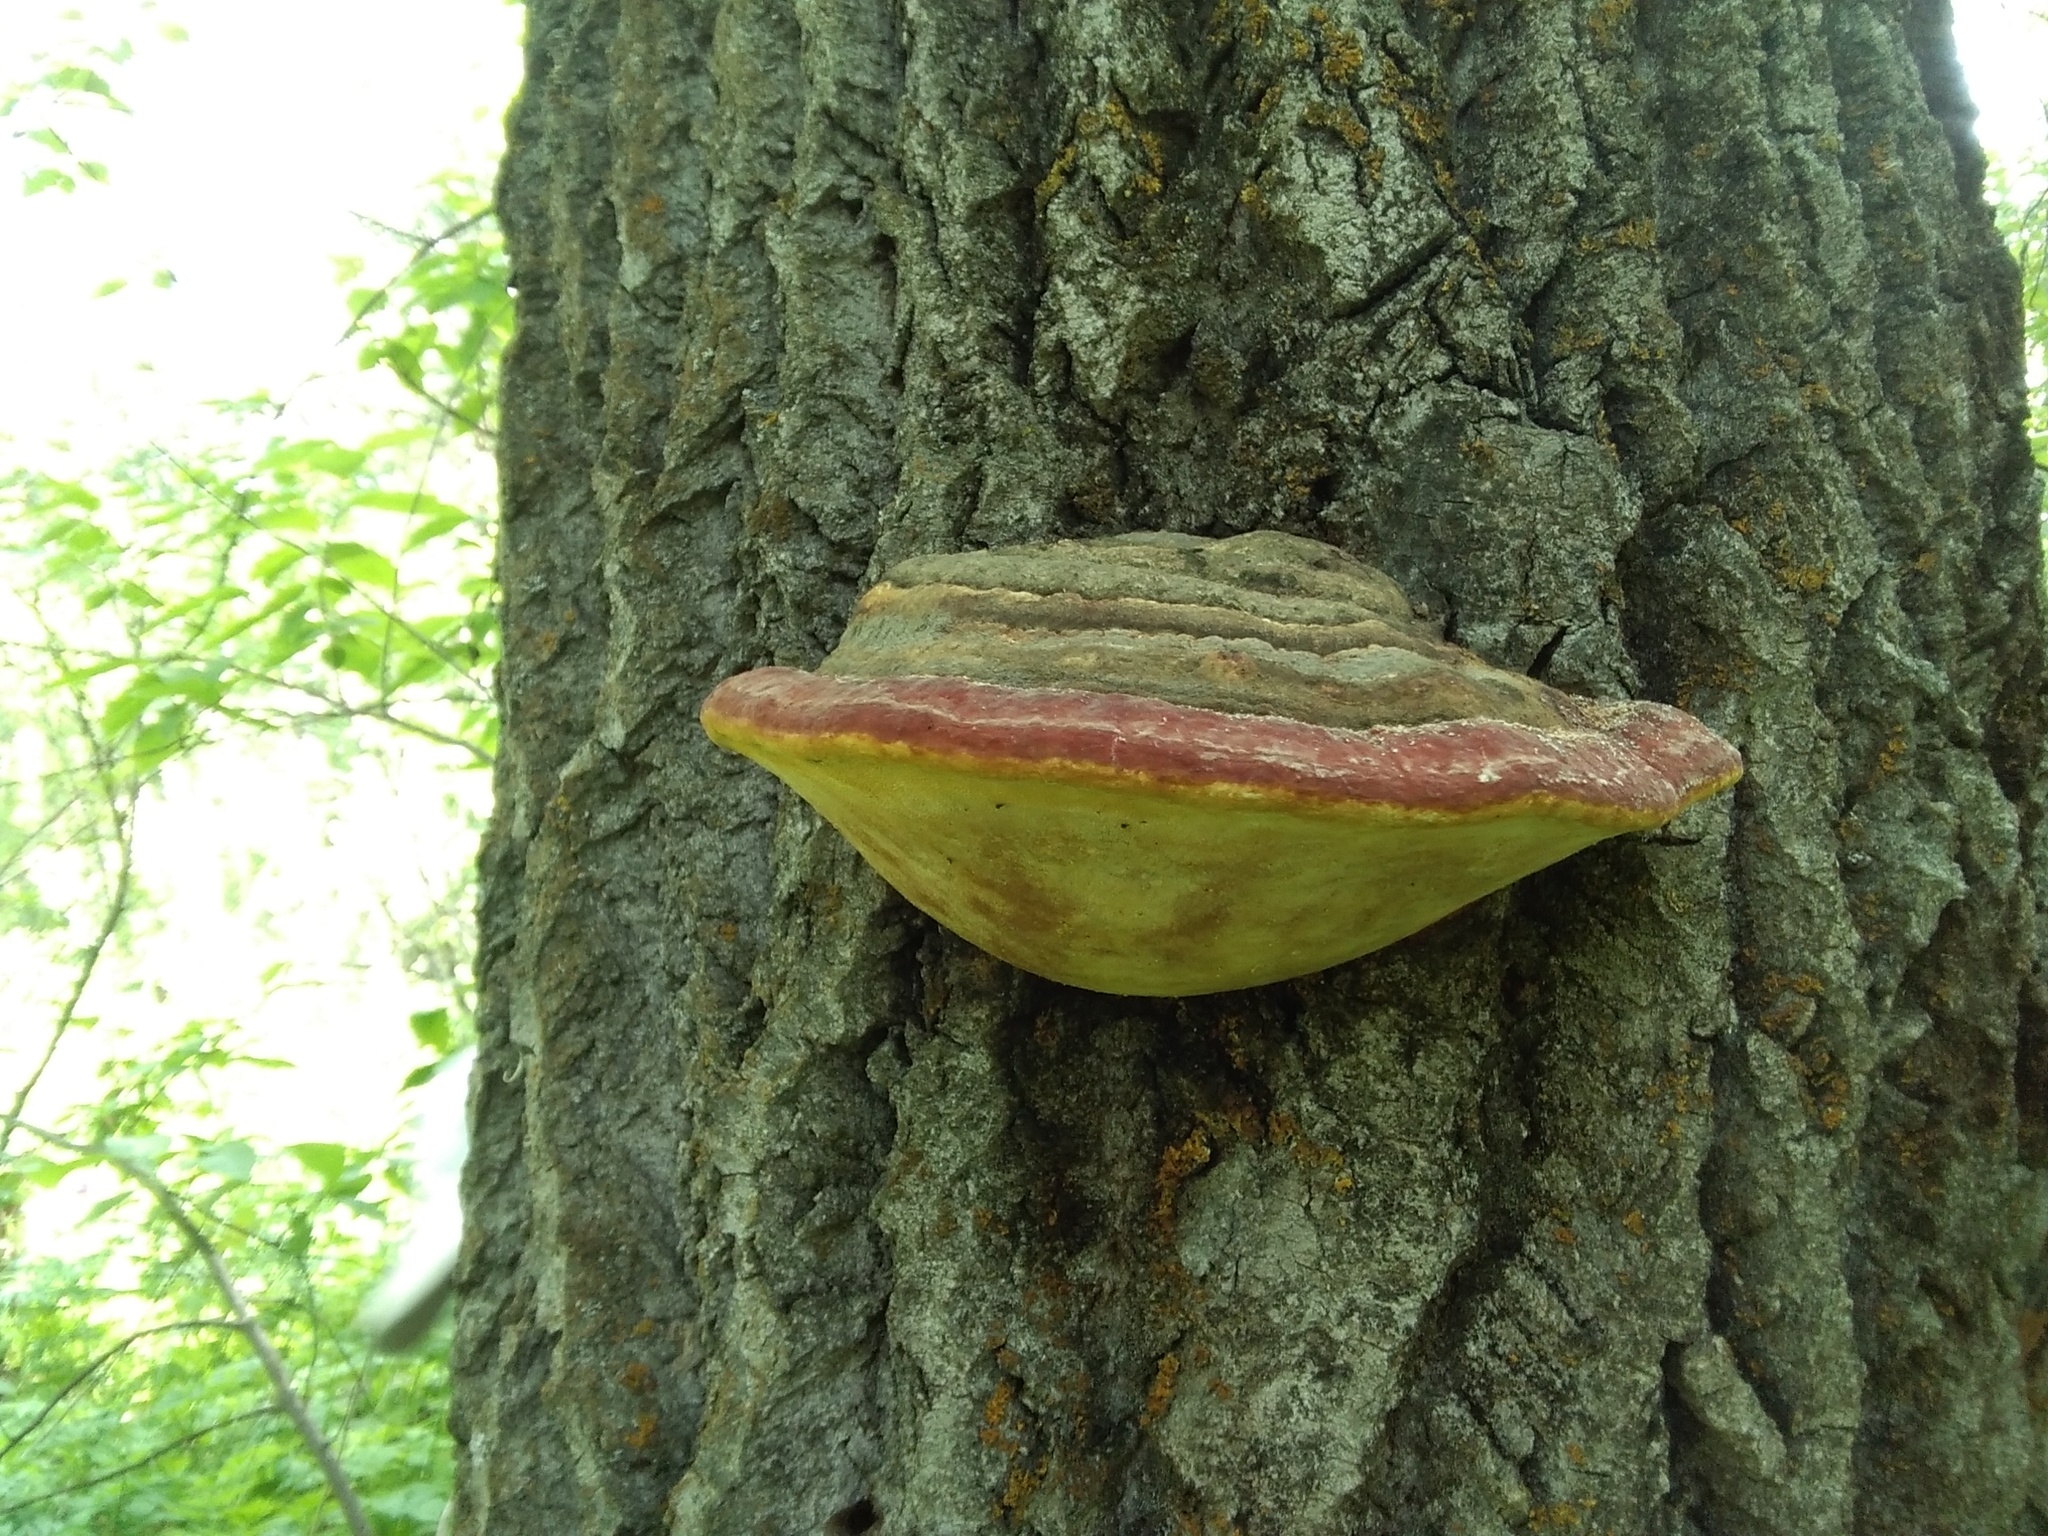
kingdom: Fungi
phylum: Basidiomycota
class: Agaricomycetes
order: Polyporales
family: Fomitopsidaceae
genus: Fomitopsis
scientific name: Fomitopsis pinicola
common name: Red-belted bracket
